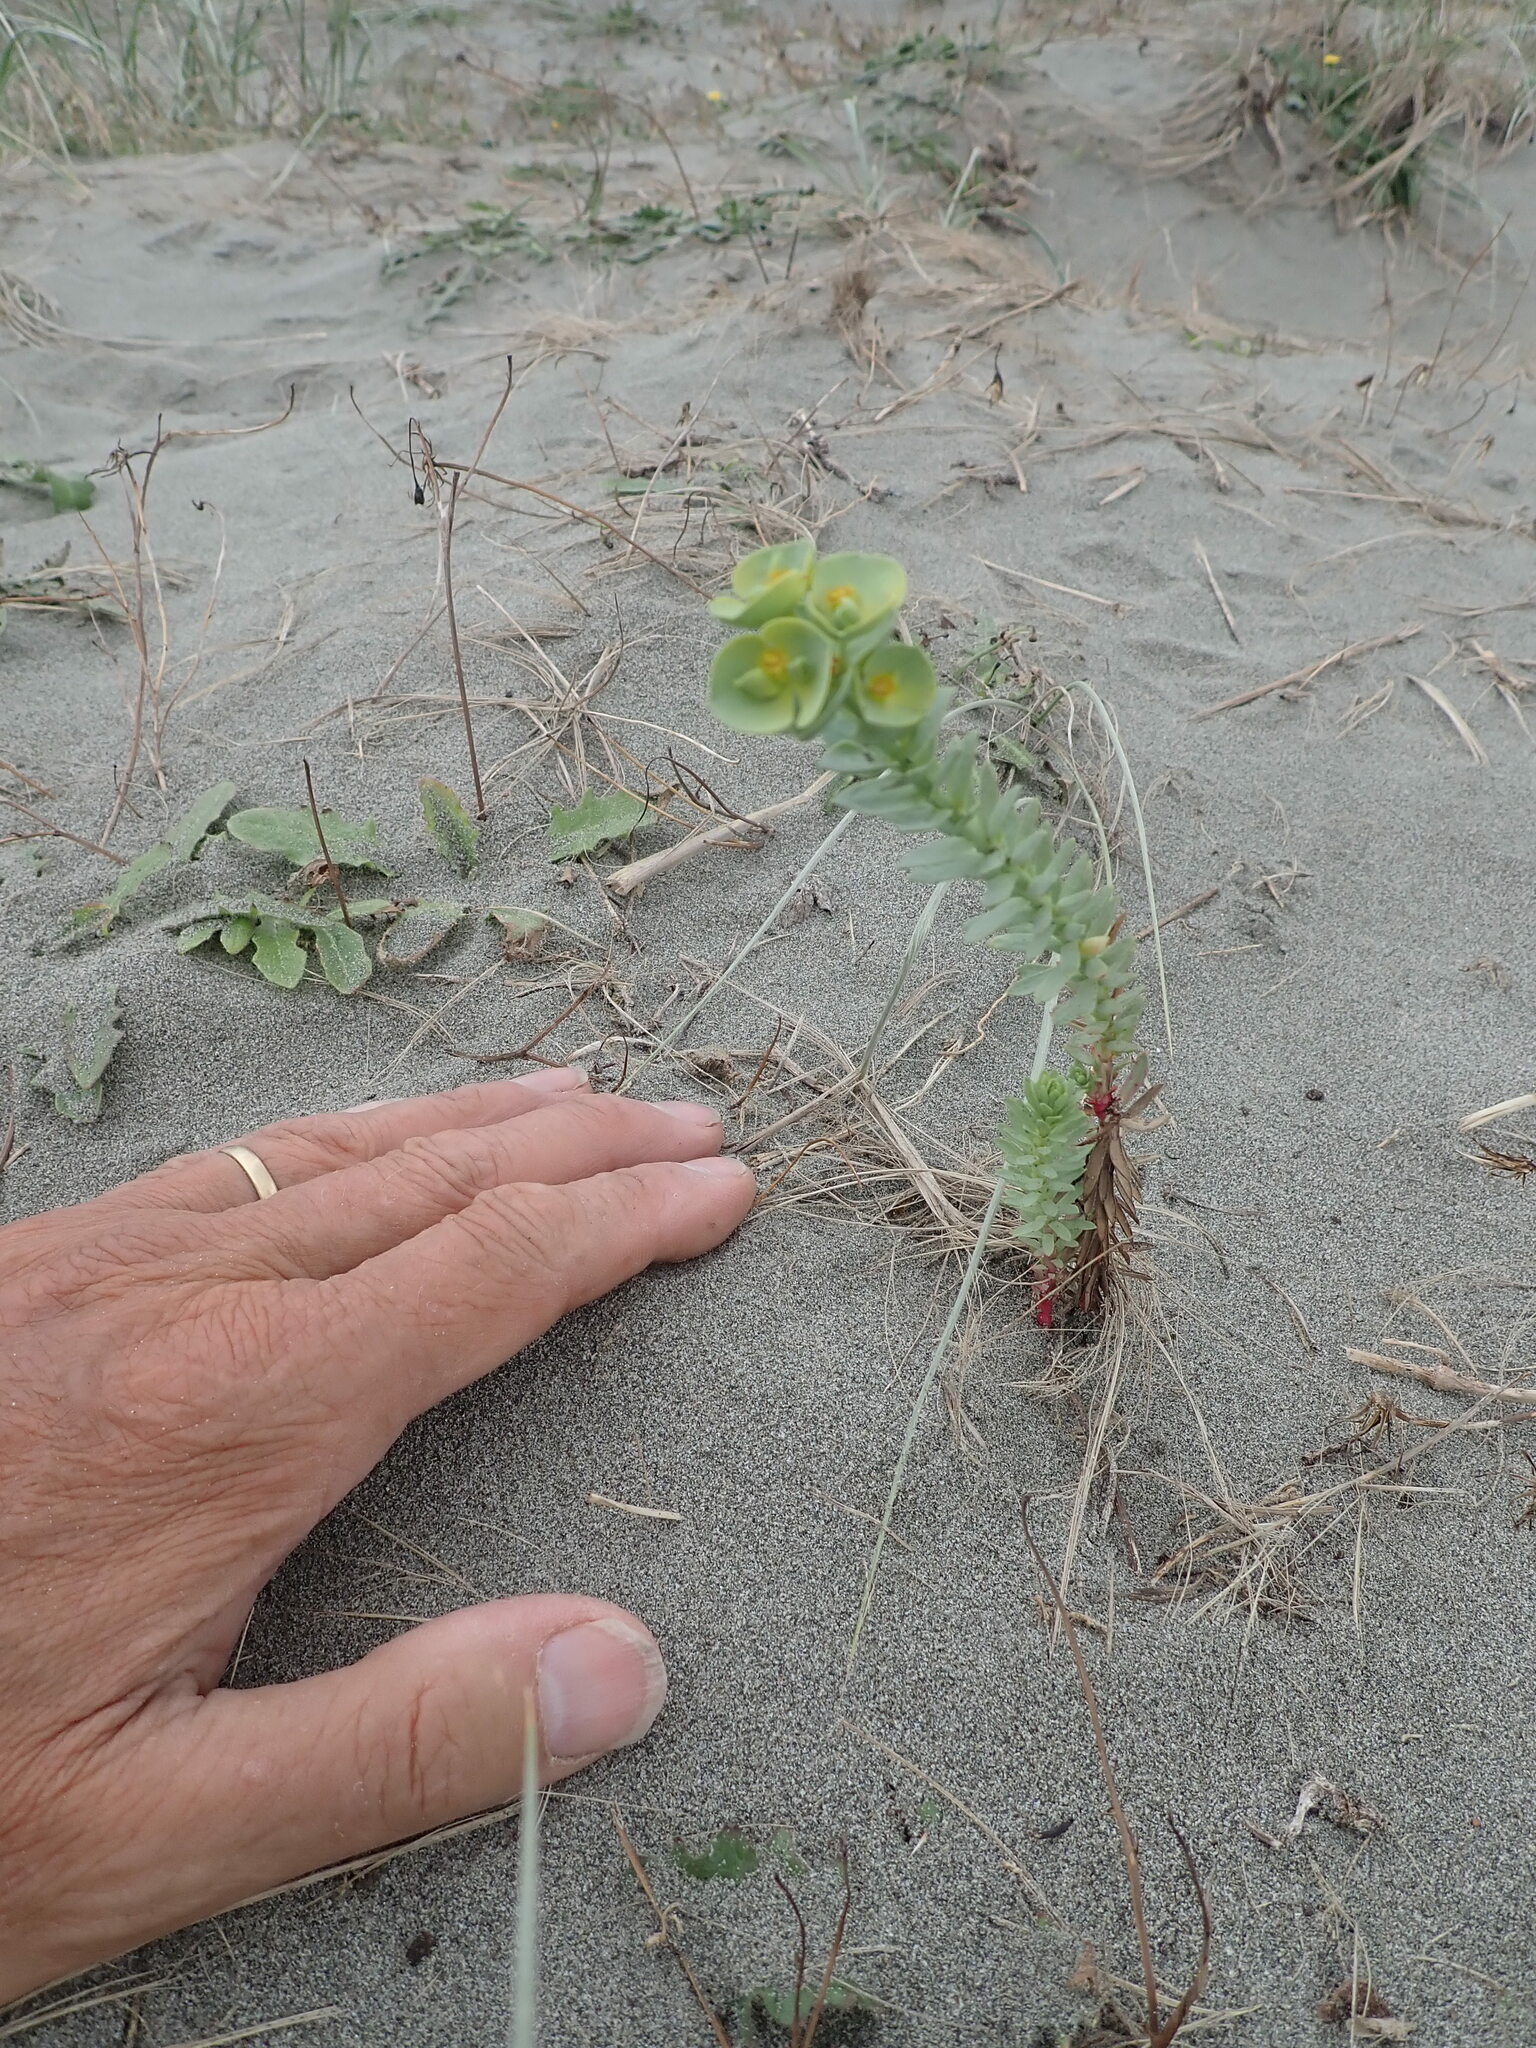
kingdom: Plantae
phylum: Tracheophyta
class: Magnoliopsida
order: Malpighiales
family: Euphorbiaceae
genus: Euphorbia
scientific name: Euphorbia paralias
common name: Sea spurge
